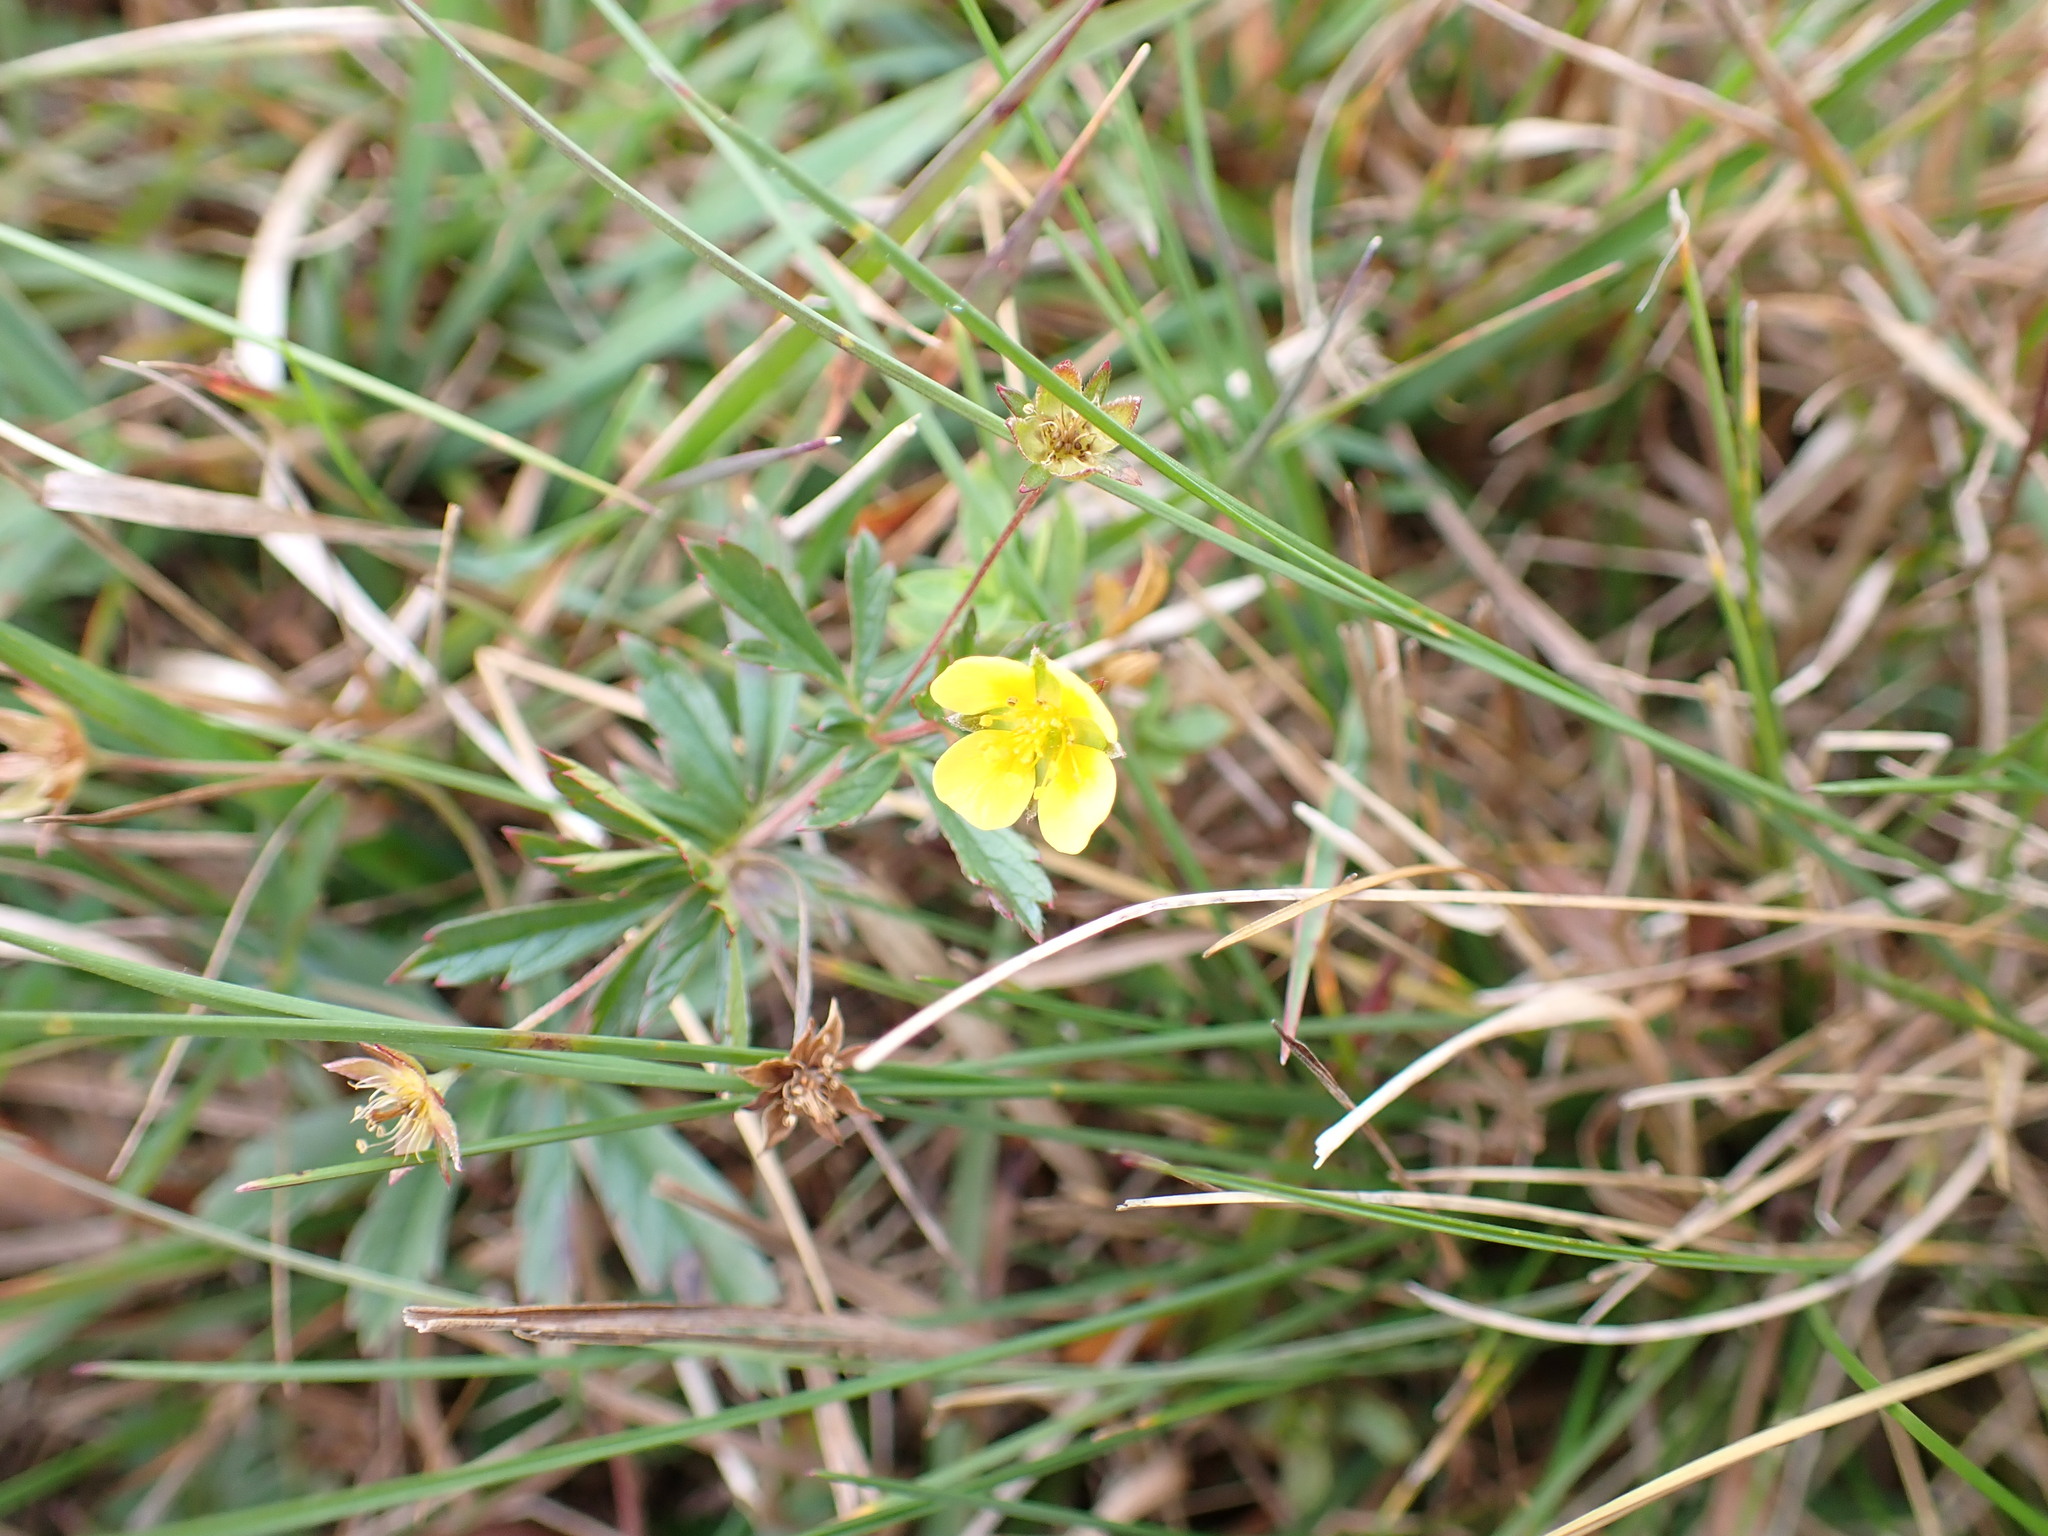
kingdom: Plantae
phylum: Tracheophyta
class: Magnoliopsida
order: Rosales
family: Rosaceae
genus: Potentilla
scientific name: Potentilla erecta
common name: Tormentil
